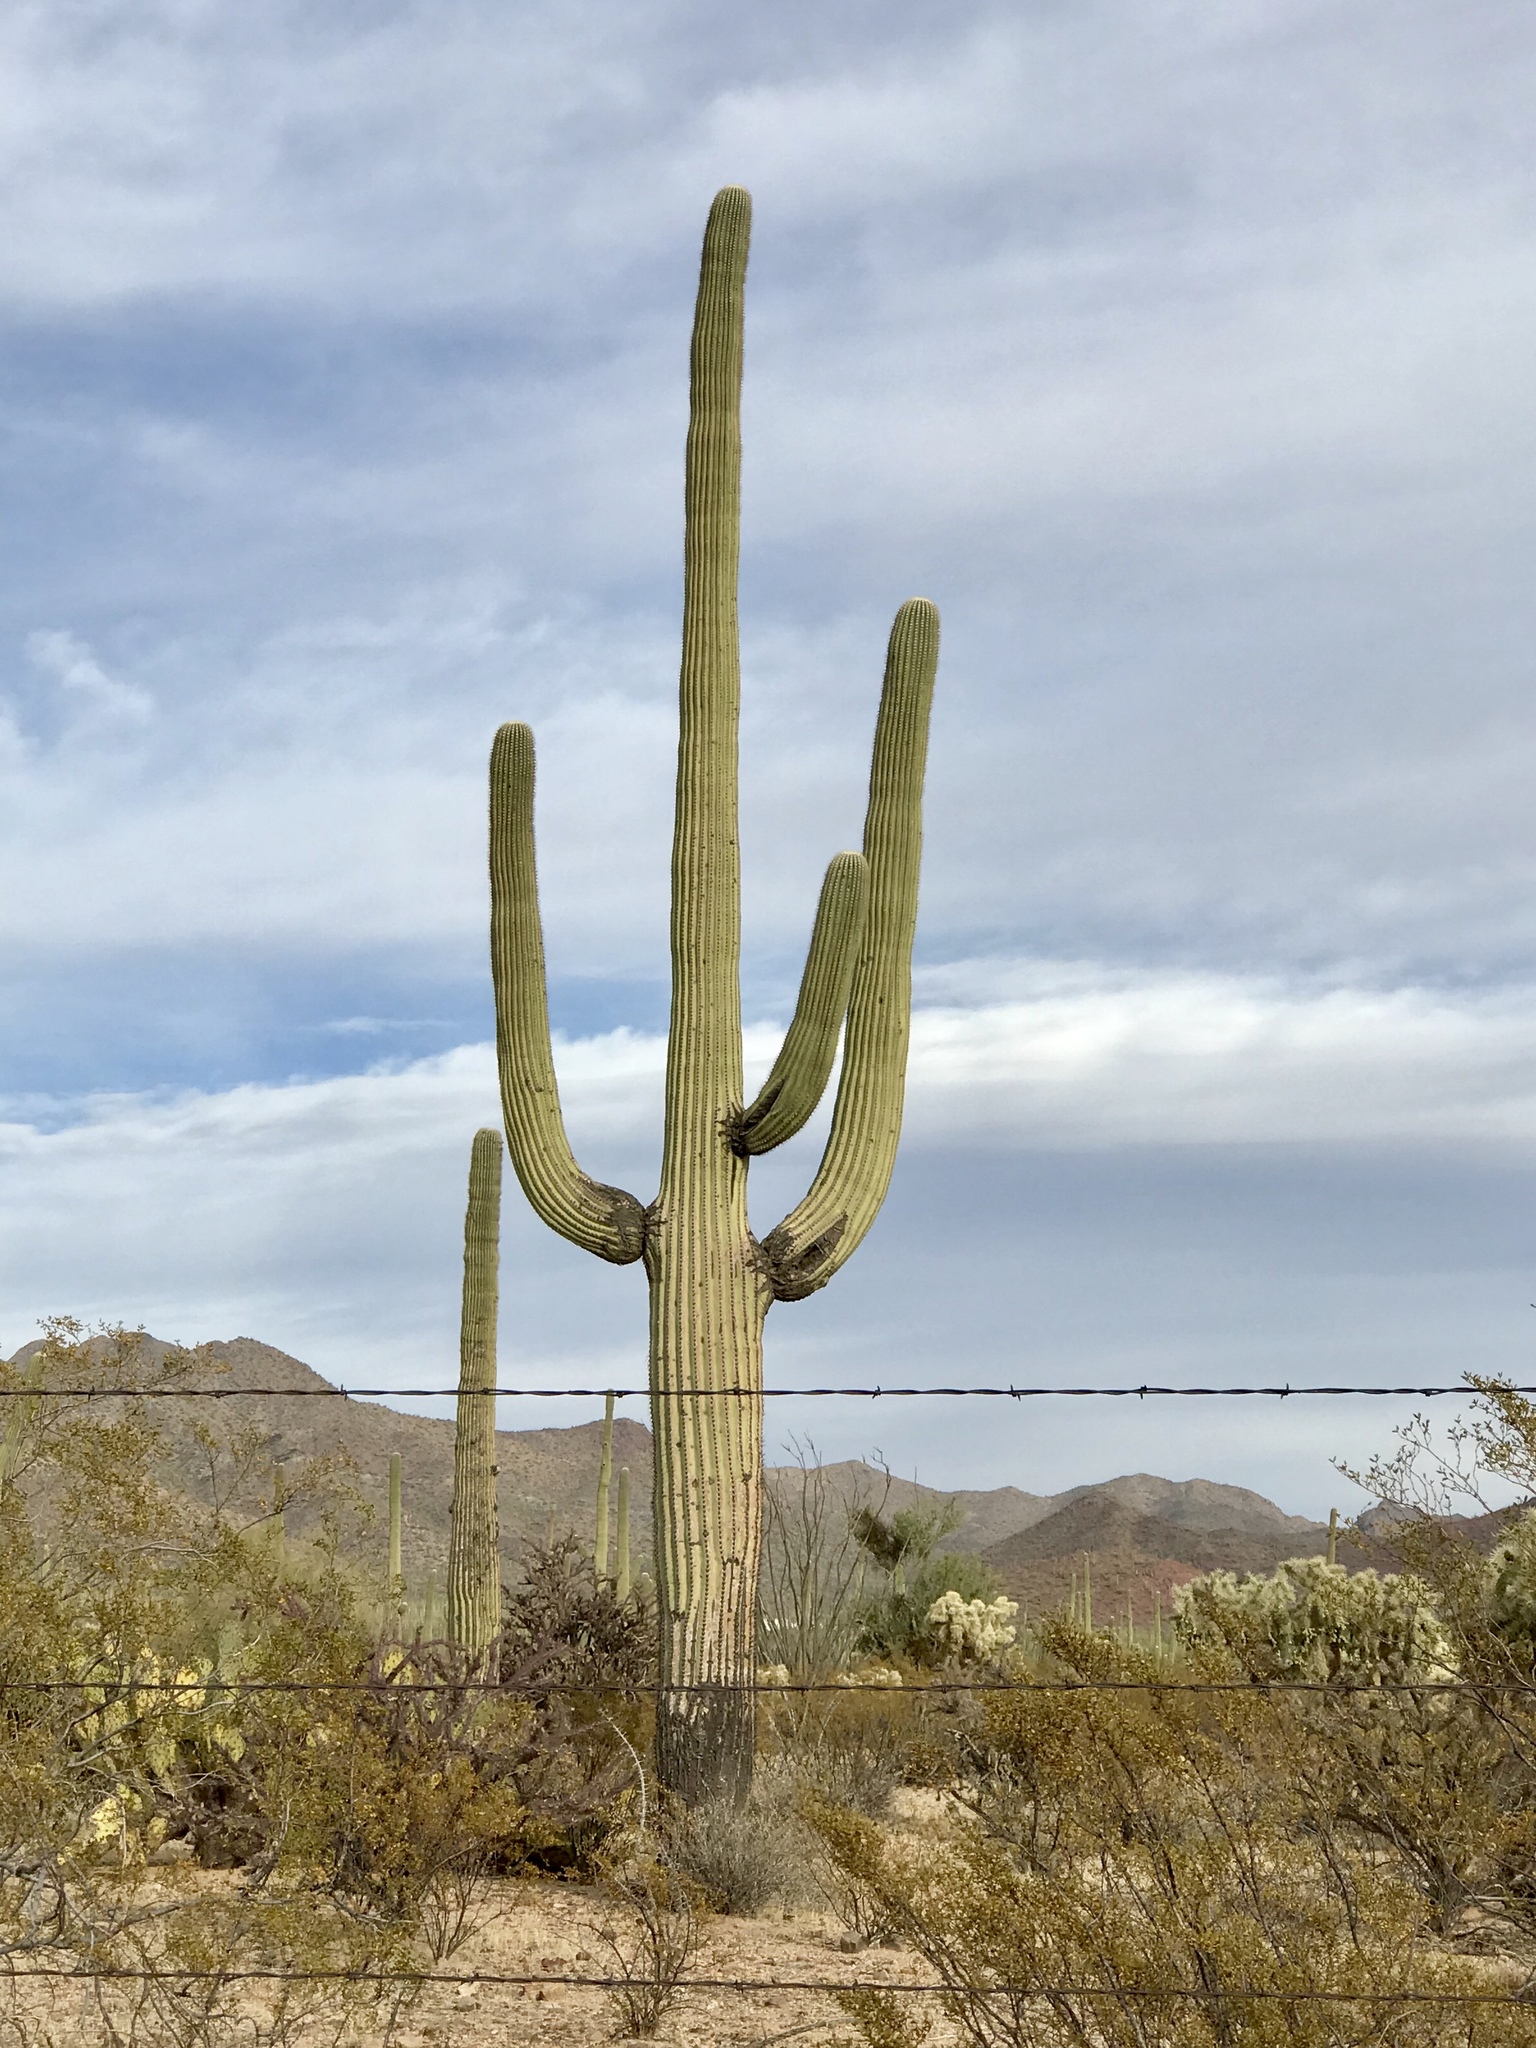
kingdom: Plantae
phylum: Tracheophyta
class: Magnoliopsida
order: Caryophyllales
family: Cactaceae
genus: Carnegiea
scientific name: Carnegiea gigantea
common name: Saguaro
